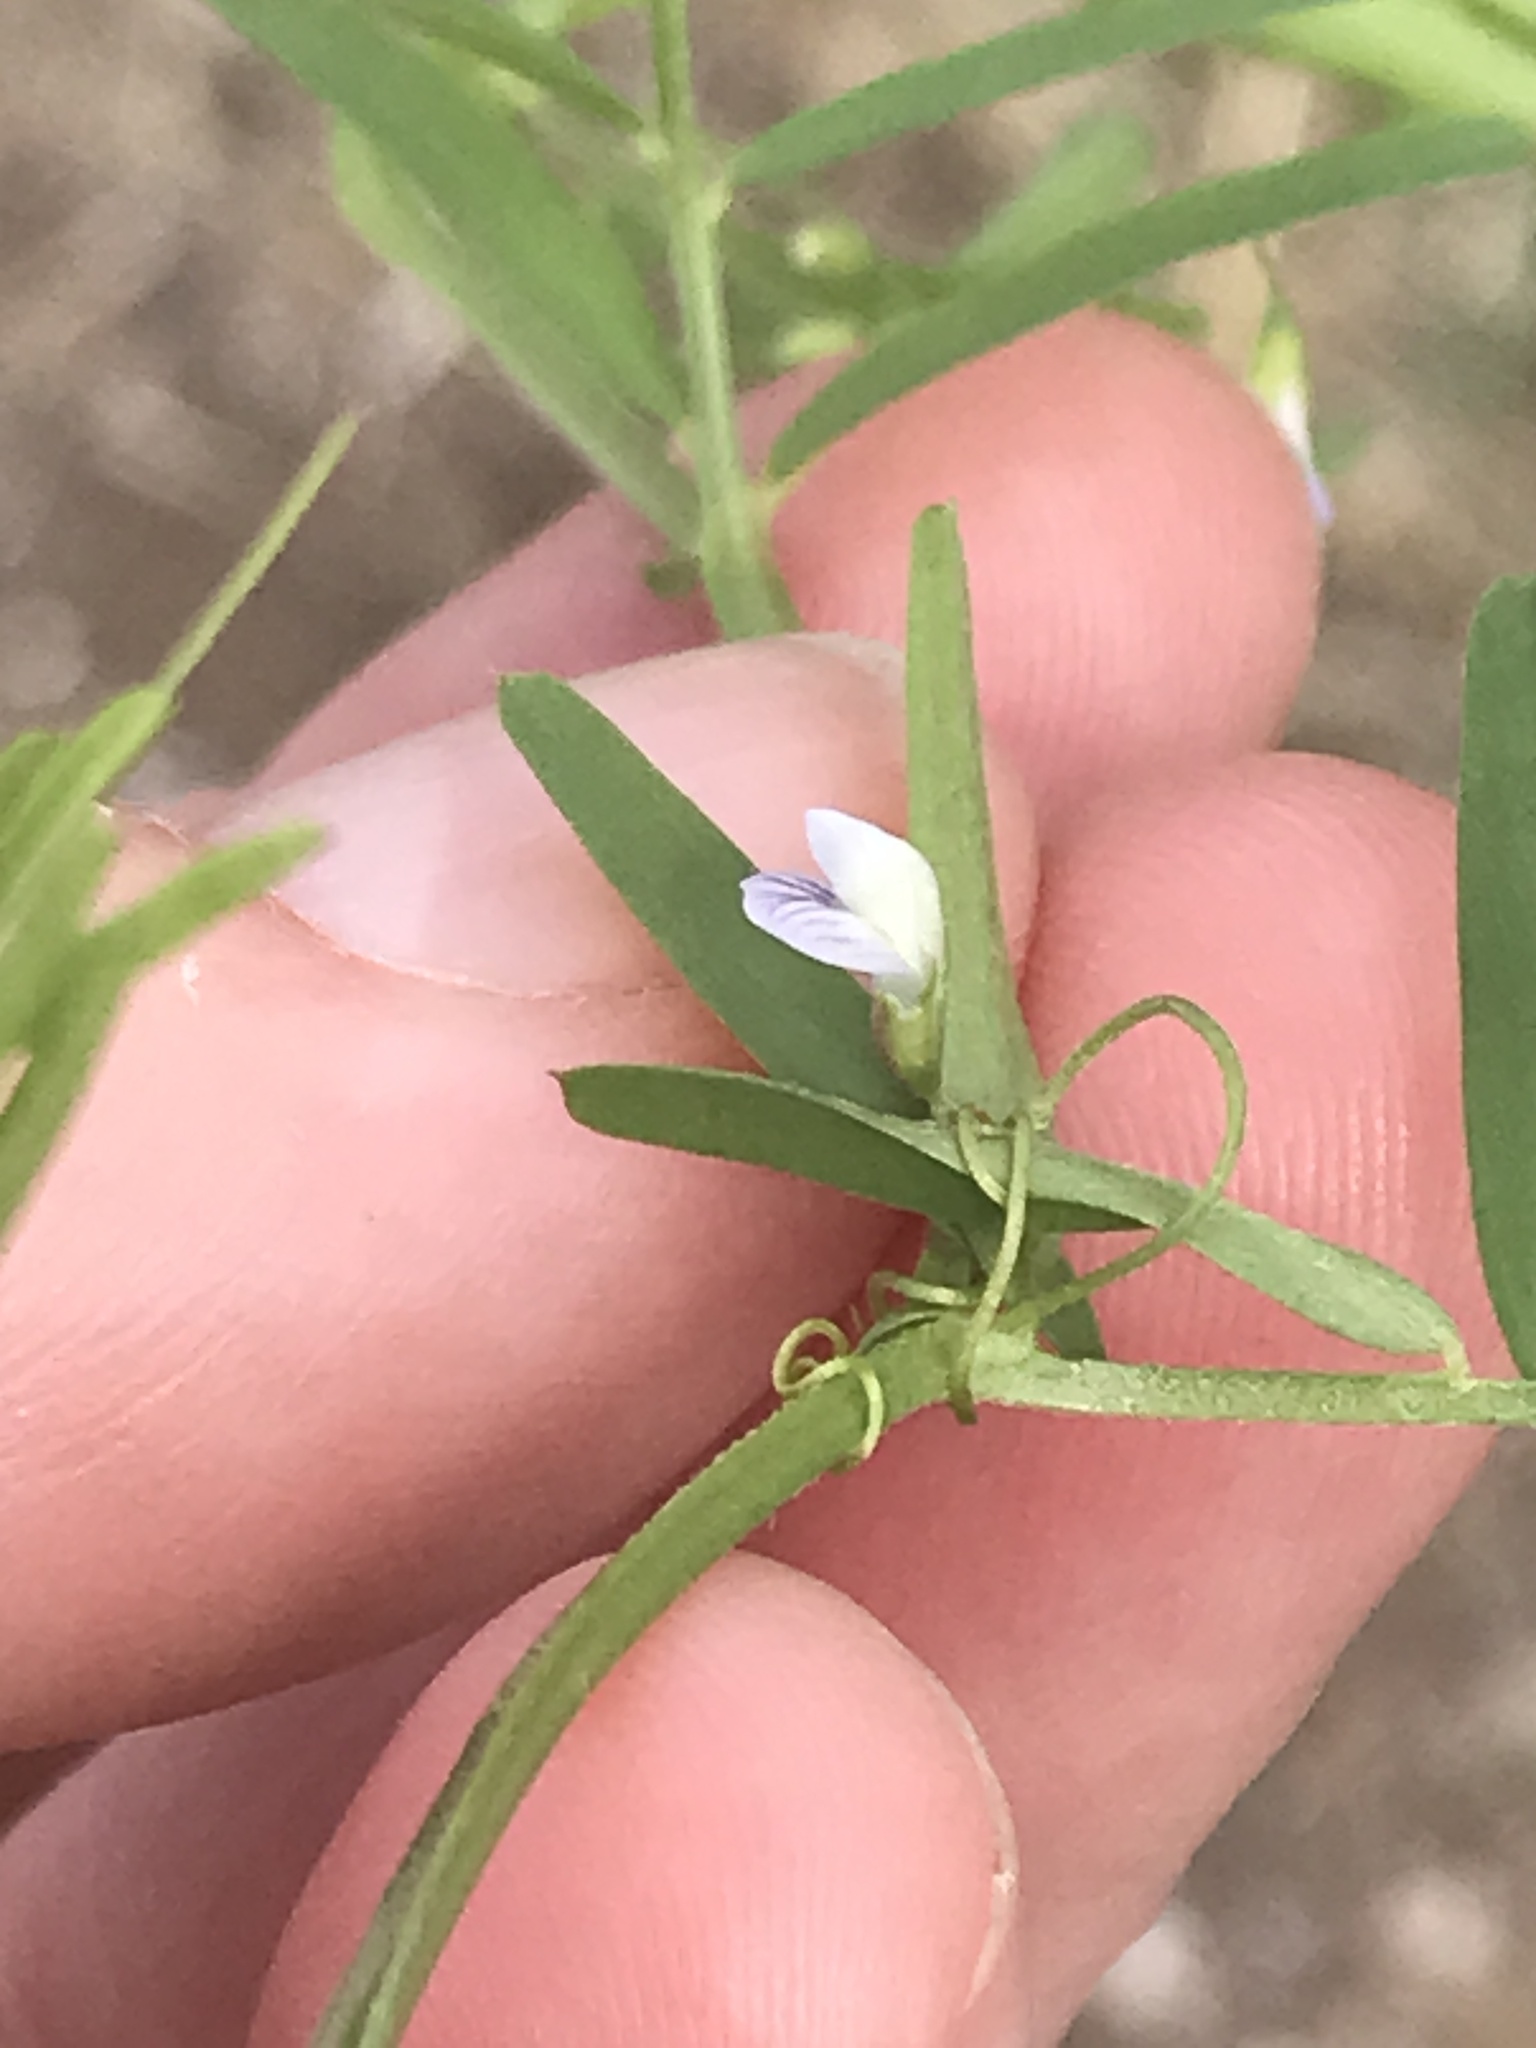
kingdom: Plantae
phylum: Tracheophyta
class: Magnoliopsida
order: Fabales
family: Fabaceae
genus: Vicia
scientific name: Vicia tetrasperma
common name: Smooth tare
